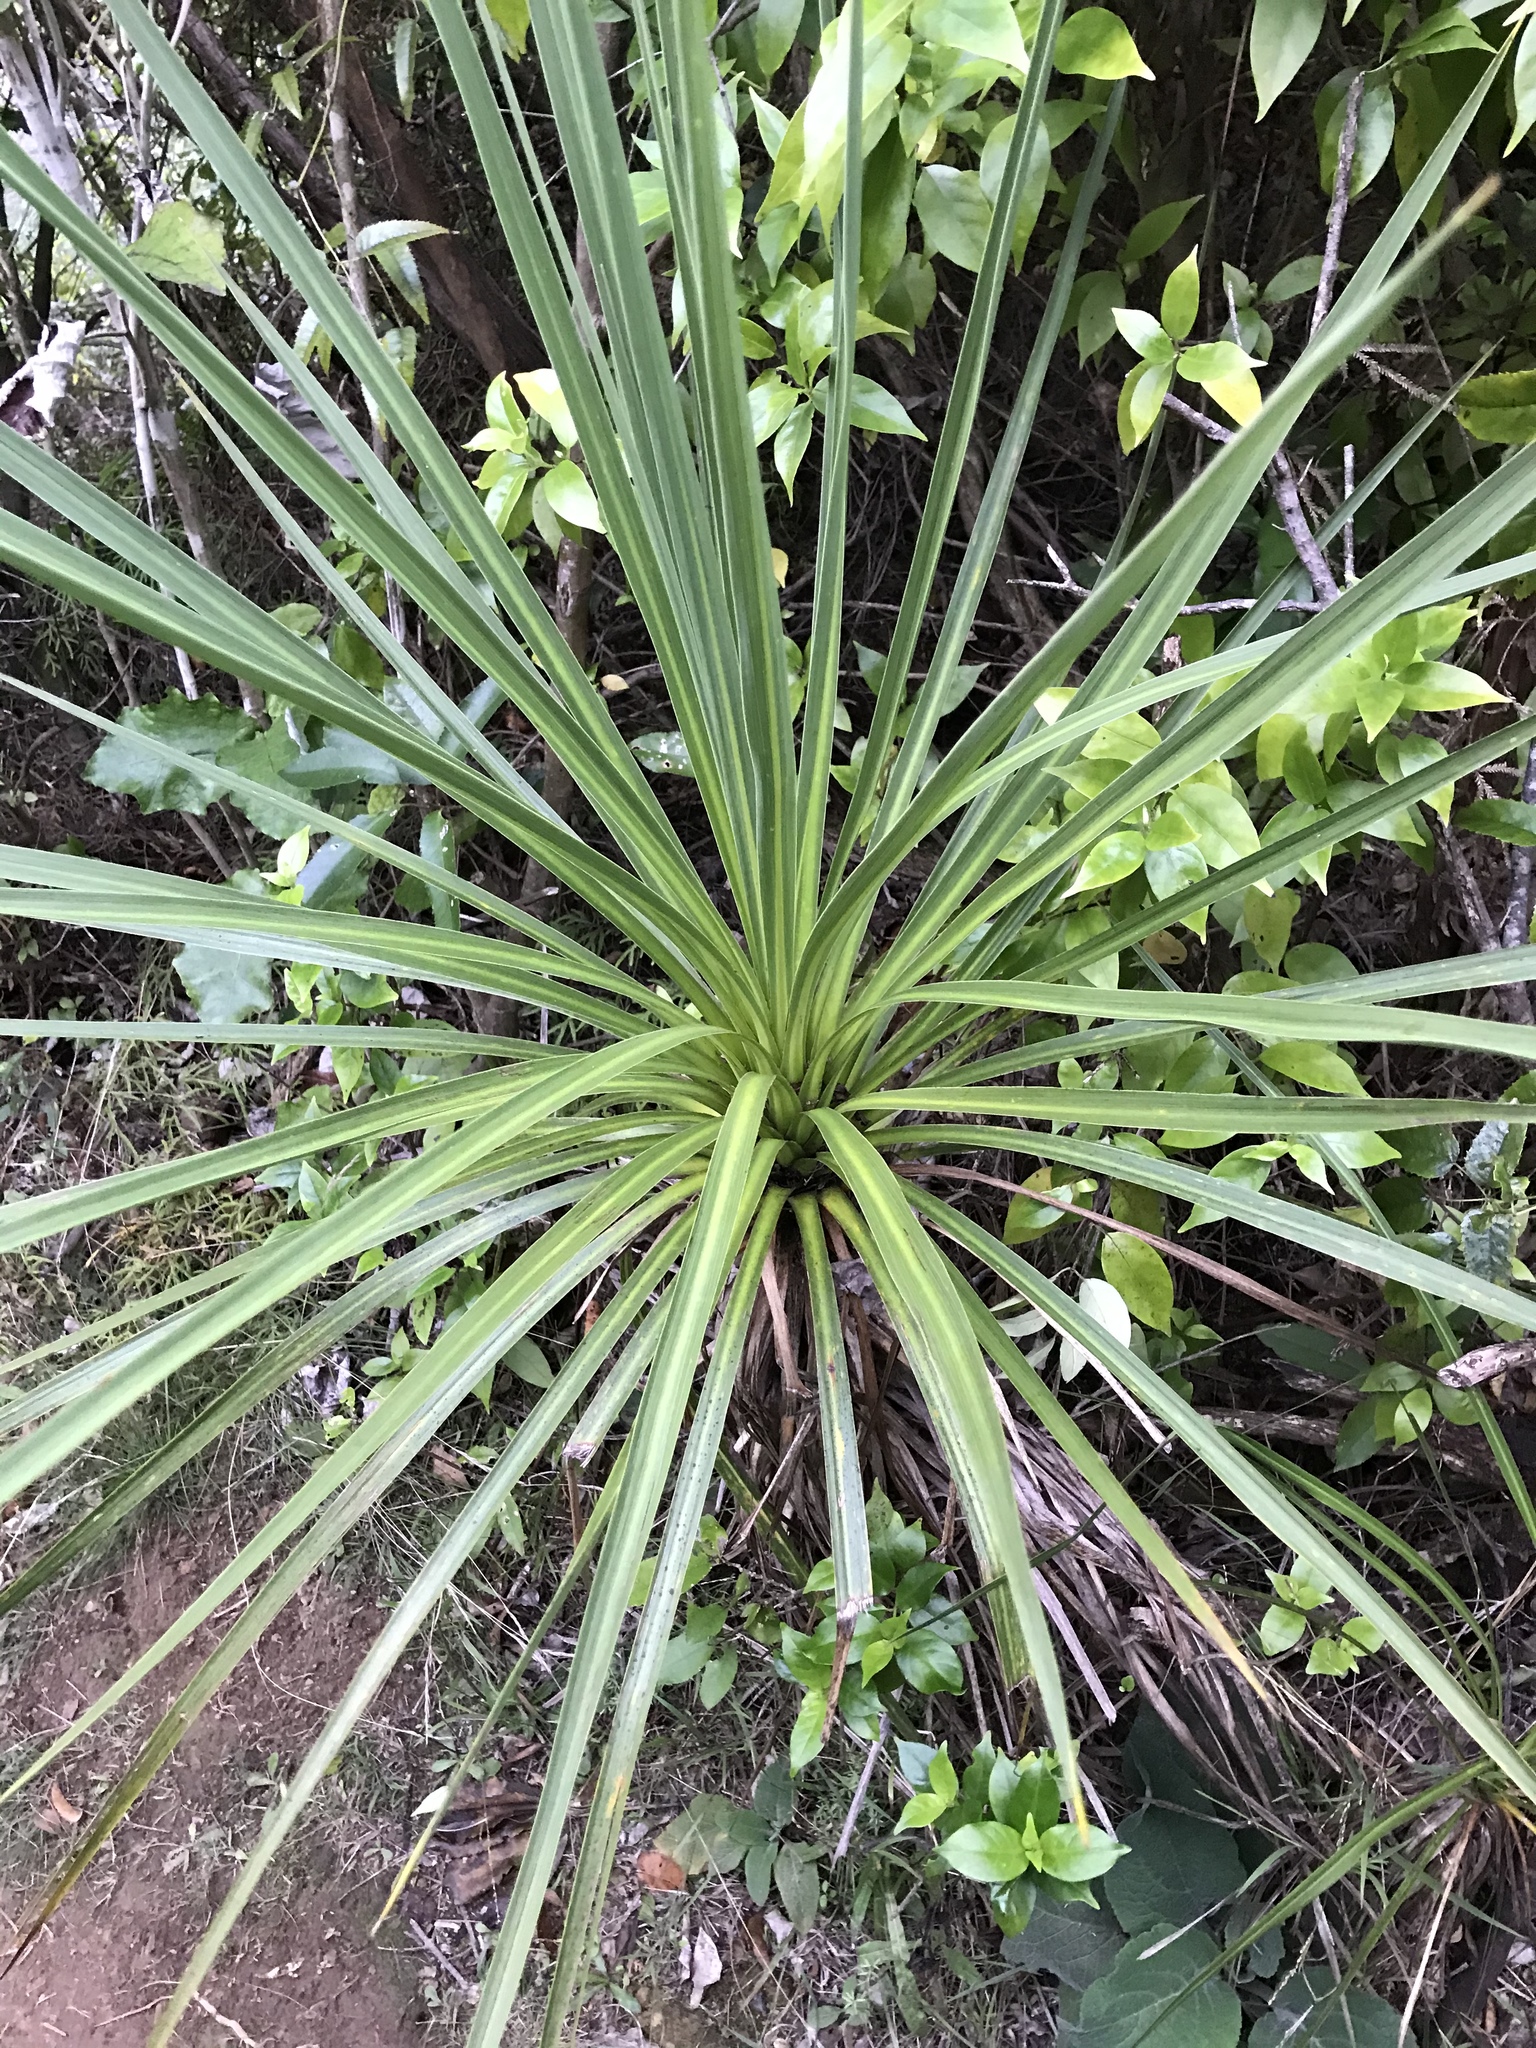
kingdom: Plantae
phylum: Tracheophyta
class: Liliopsida
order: Asparagales
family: Asparagaceae
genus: Cordyline
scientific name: Cordyline australis
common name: Cabbage-palm
